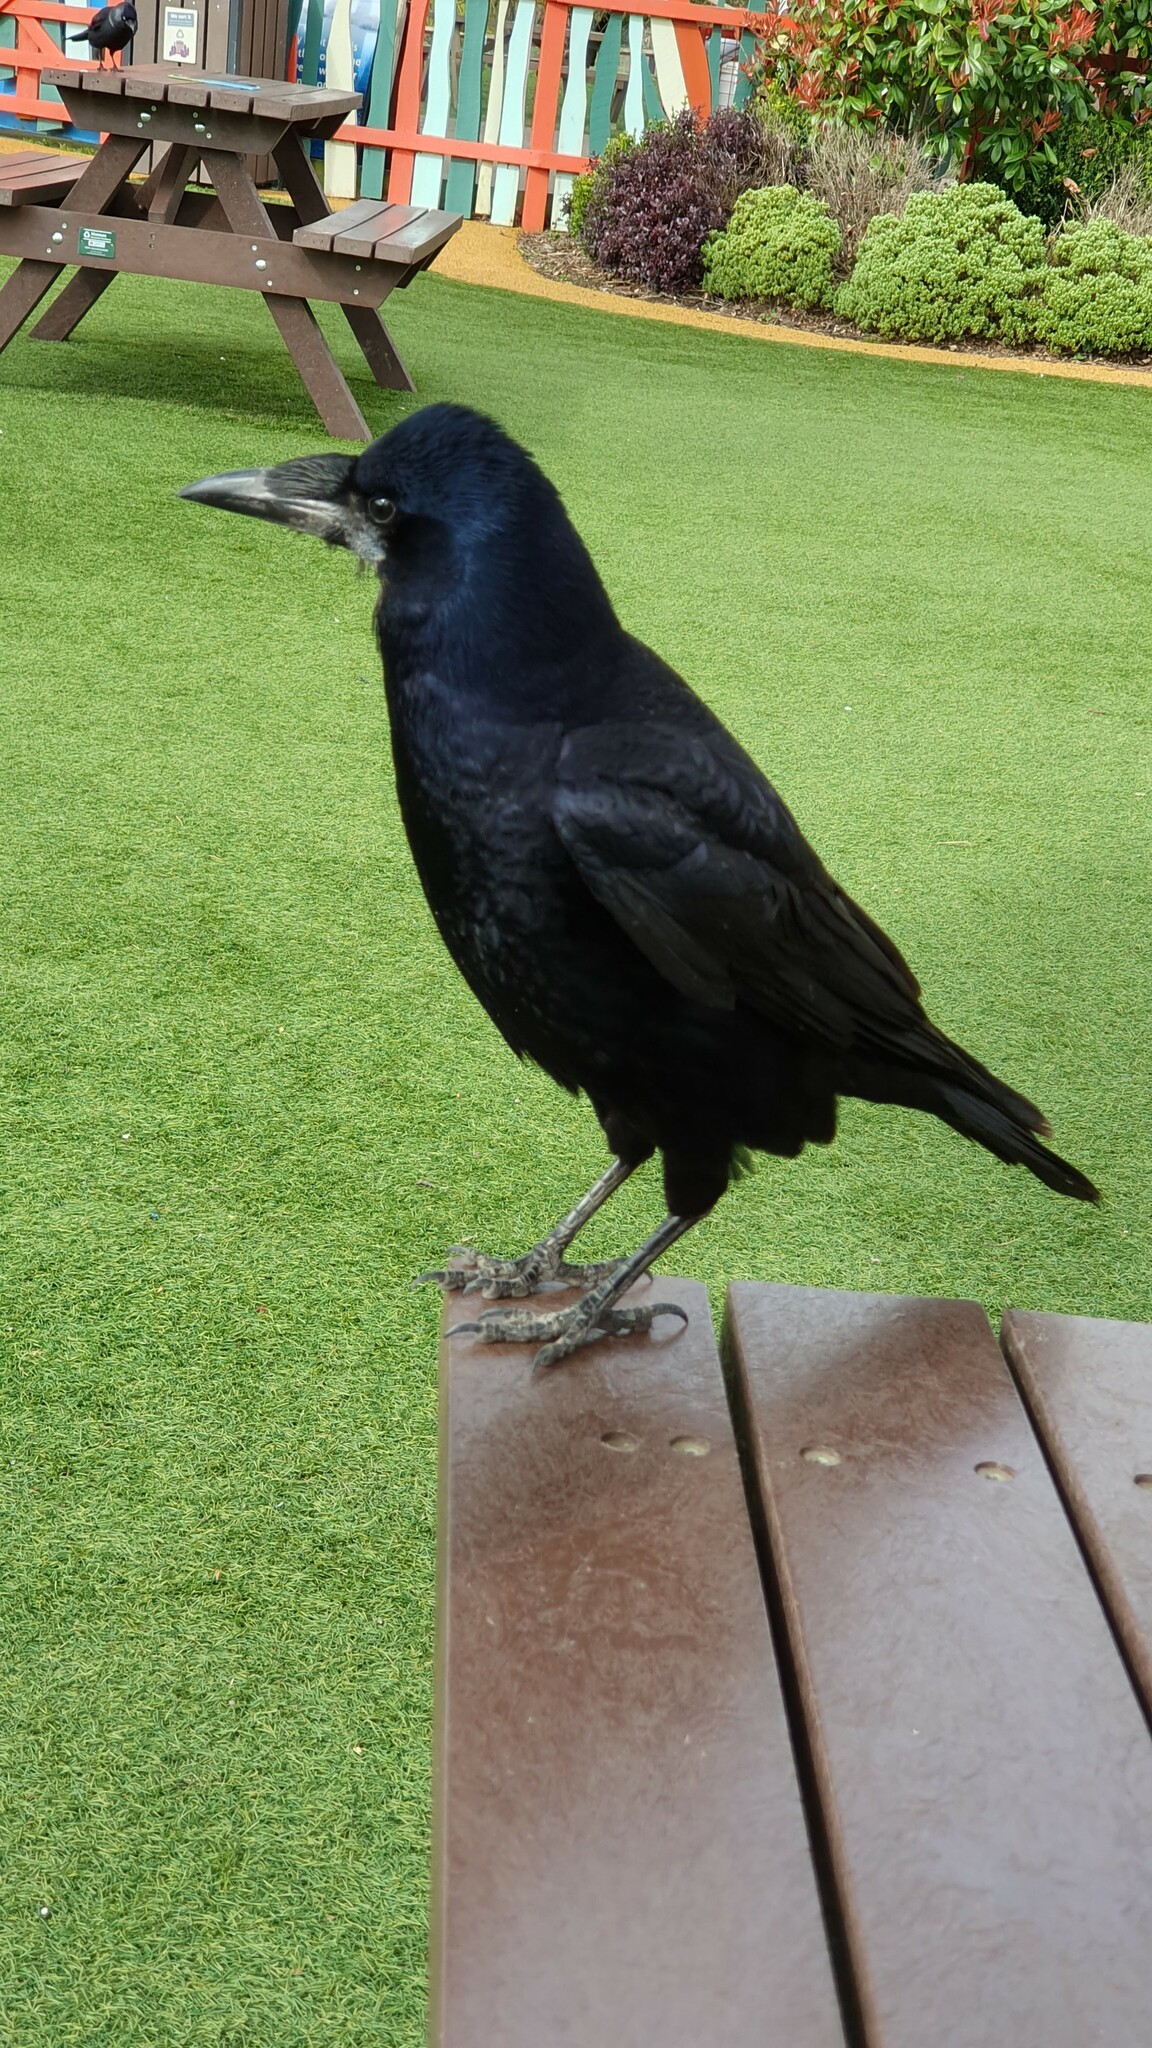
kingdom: Animalia
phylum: Chordata
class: Aves
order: Passeriformes
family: Corvidae
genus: Corvus
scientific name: Corvus frugilegus
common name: Rook
